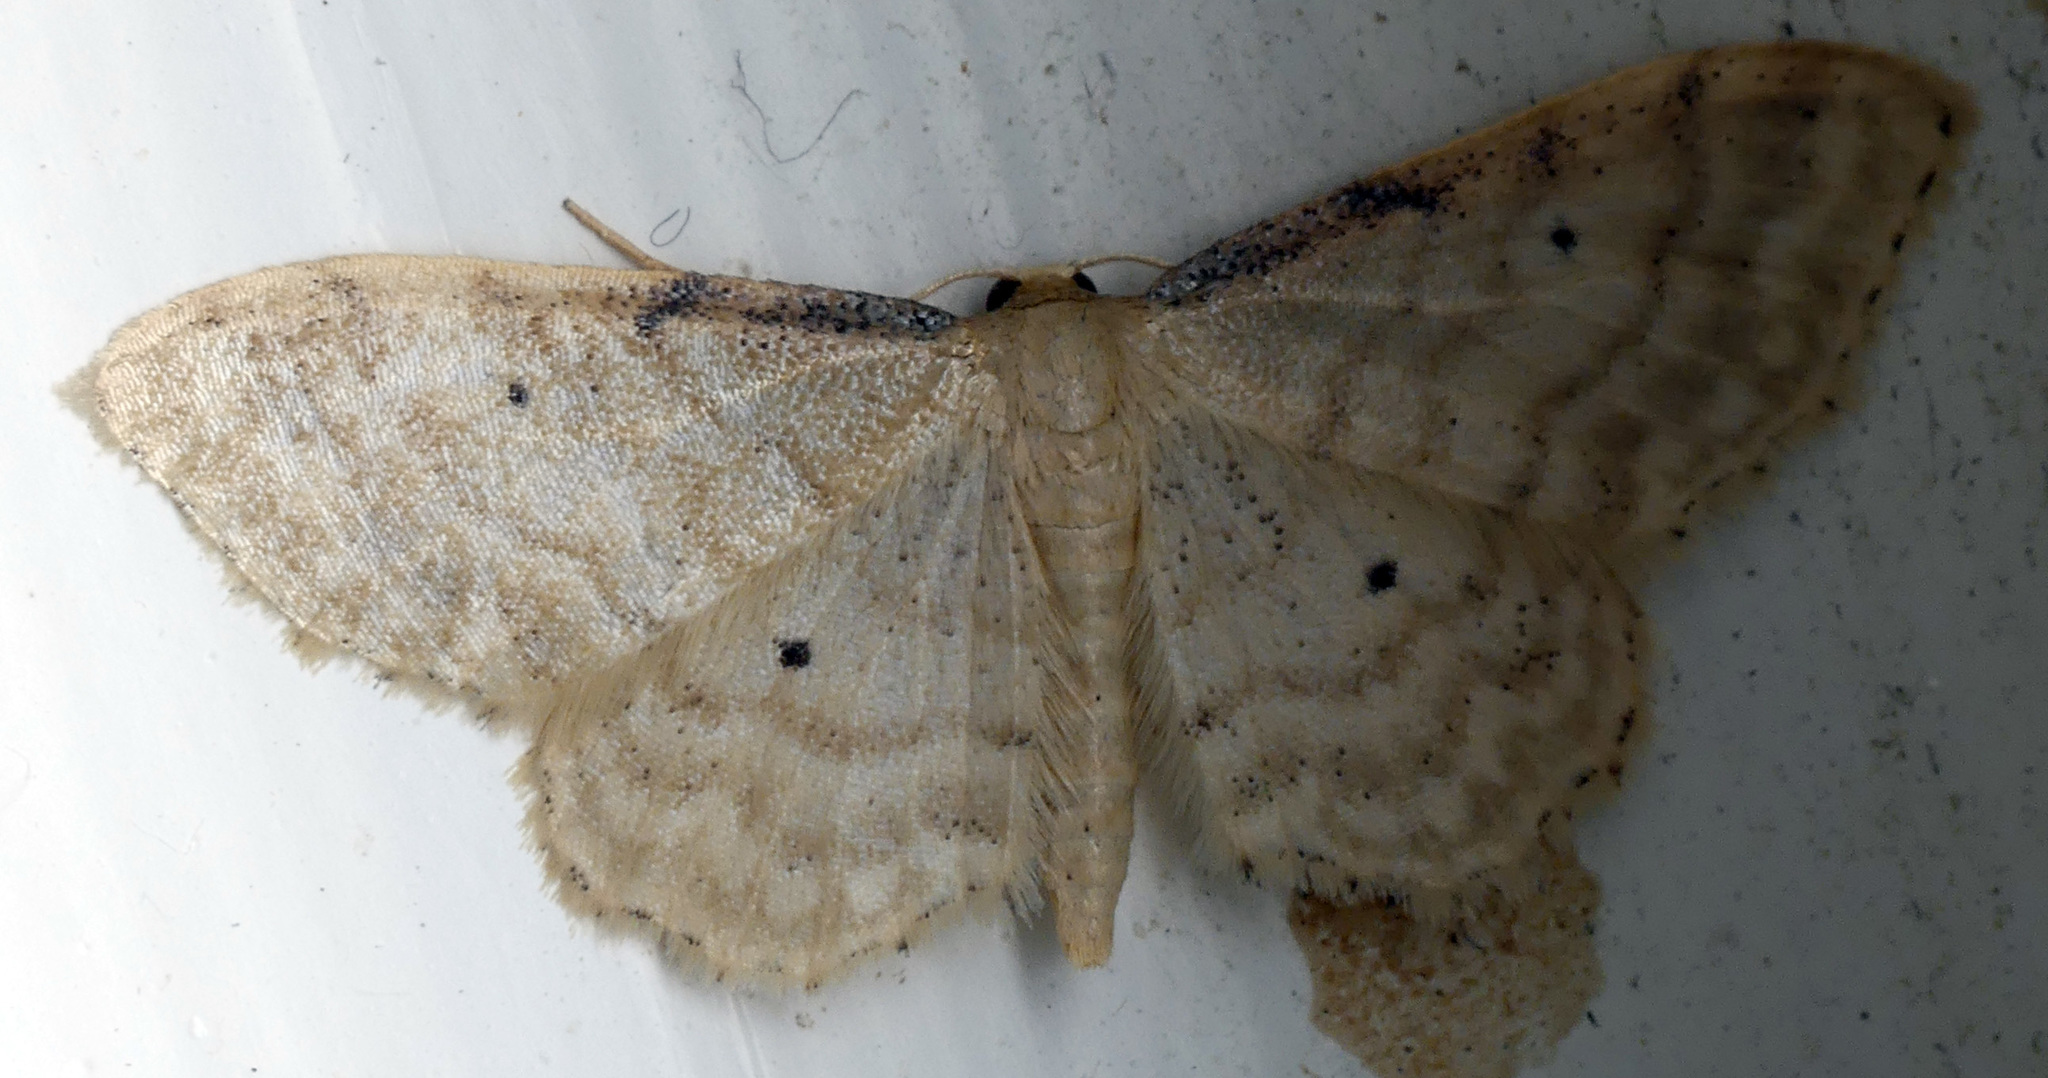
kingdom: Animalia
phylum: Arthropoda
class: Insecta
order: Lepidoptera
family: Geometridae
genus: Idaea
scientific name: Idaea fuscovenosa
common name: Dwarf cream wave
